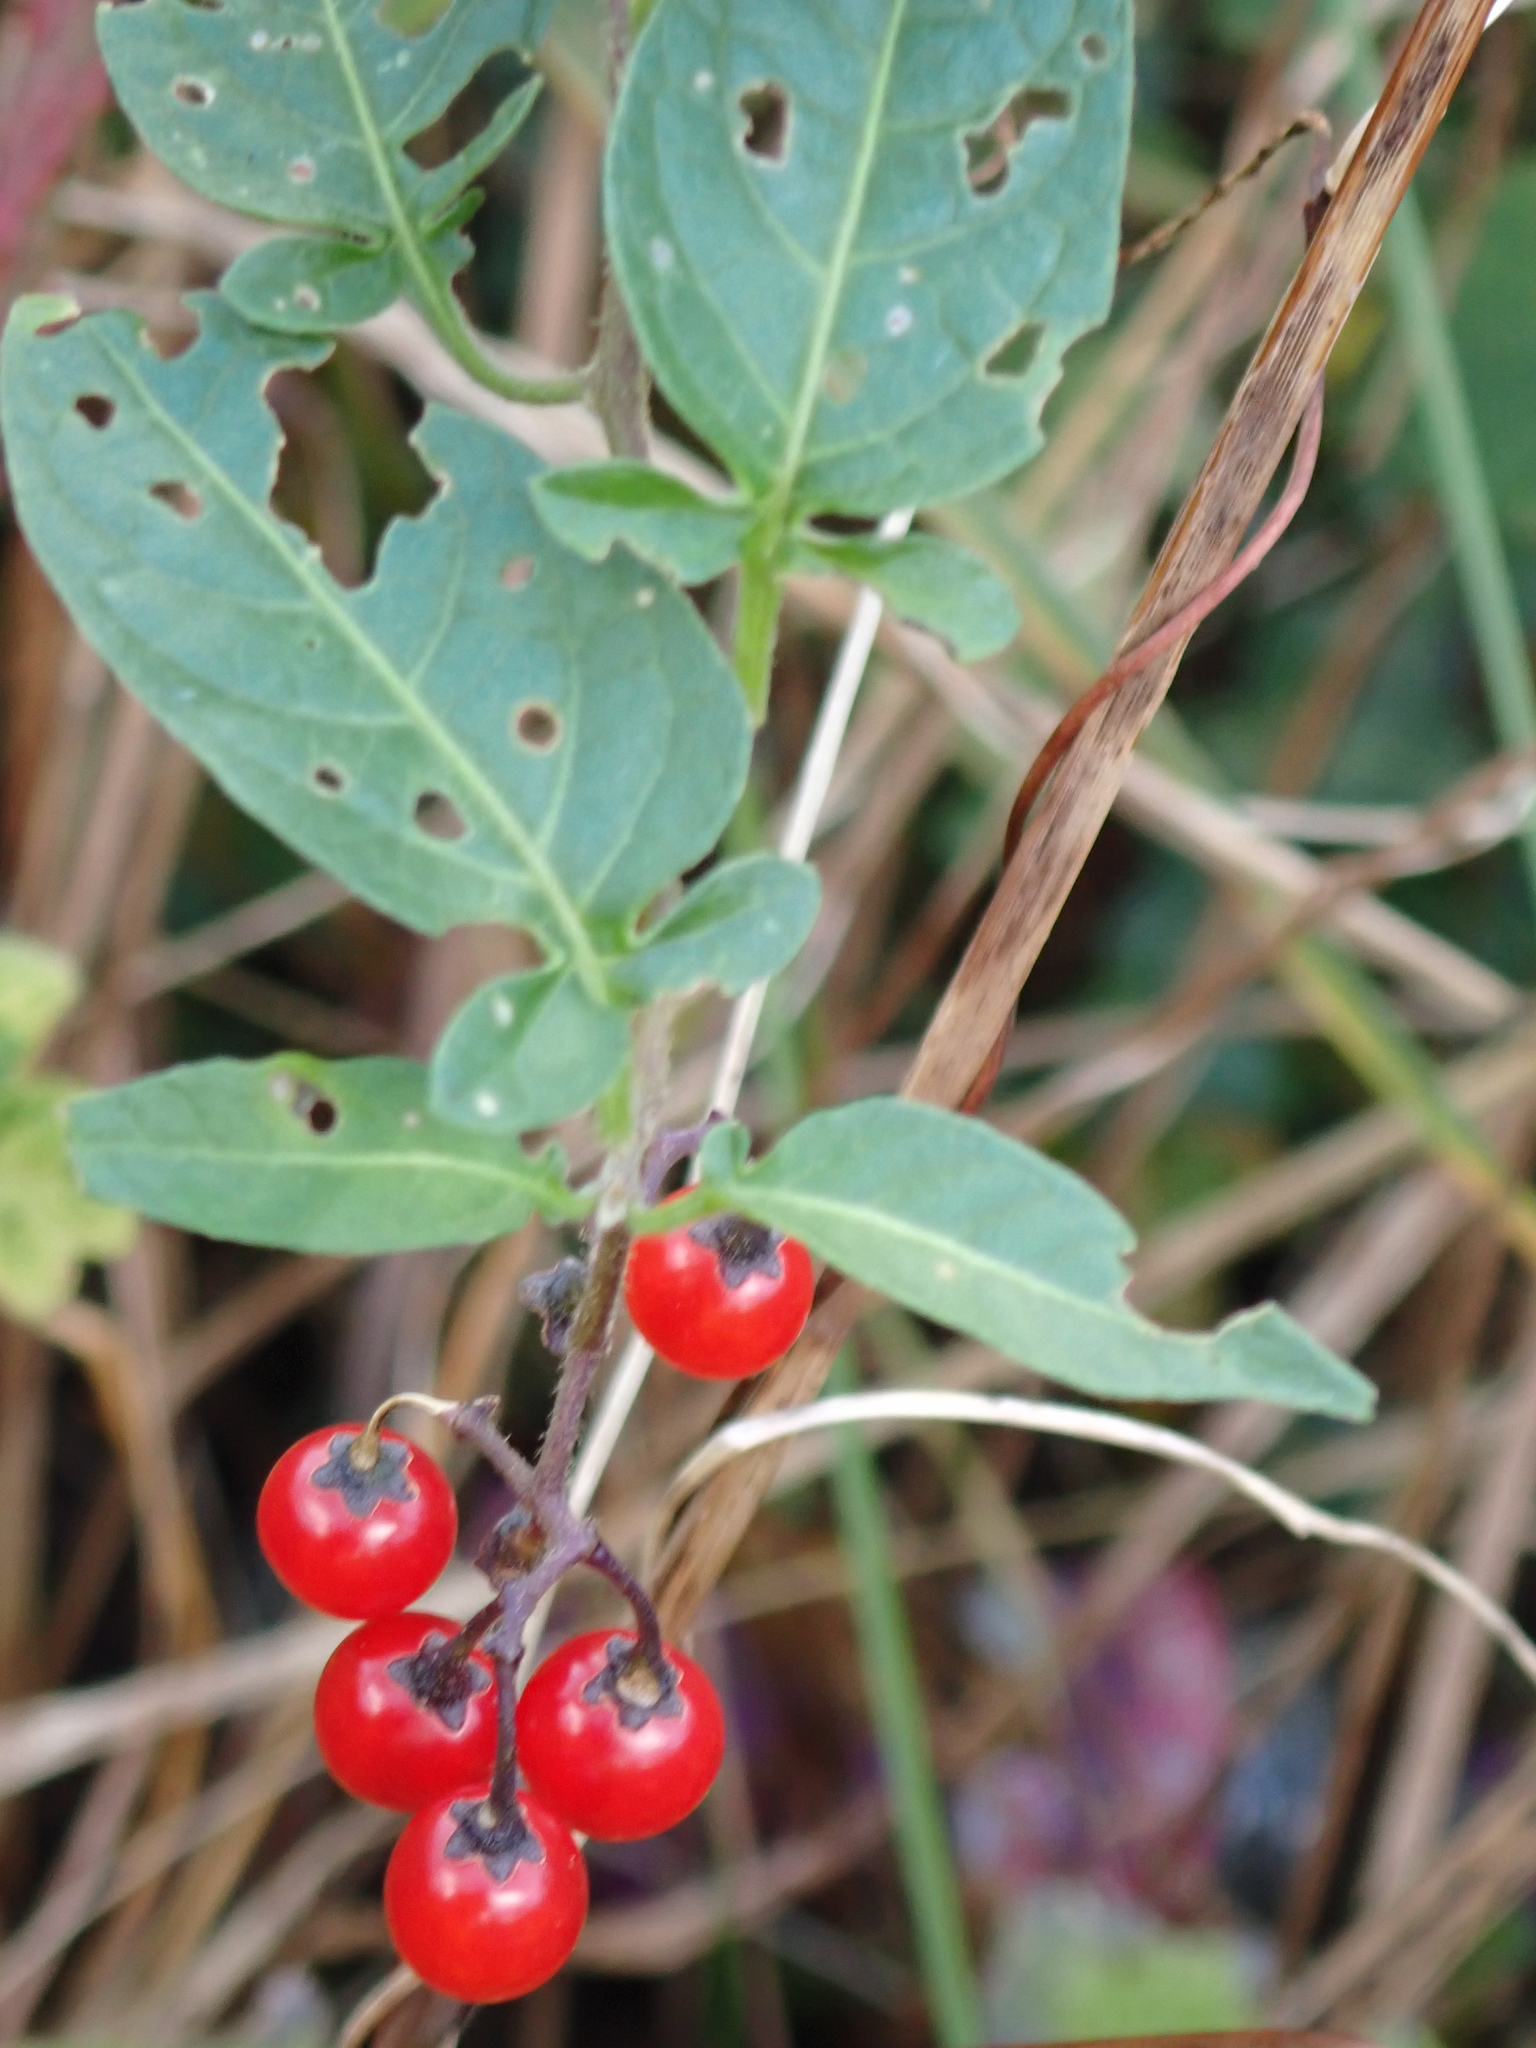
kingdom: Plantae
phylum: Tracheophyta
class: Magnoliopsida
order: Solanales
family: Solanaceae
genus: Solanum
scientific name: Solanum dulcamara
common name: Climbing nightshade
